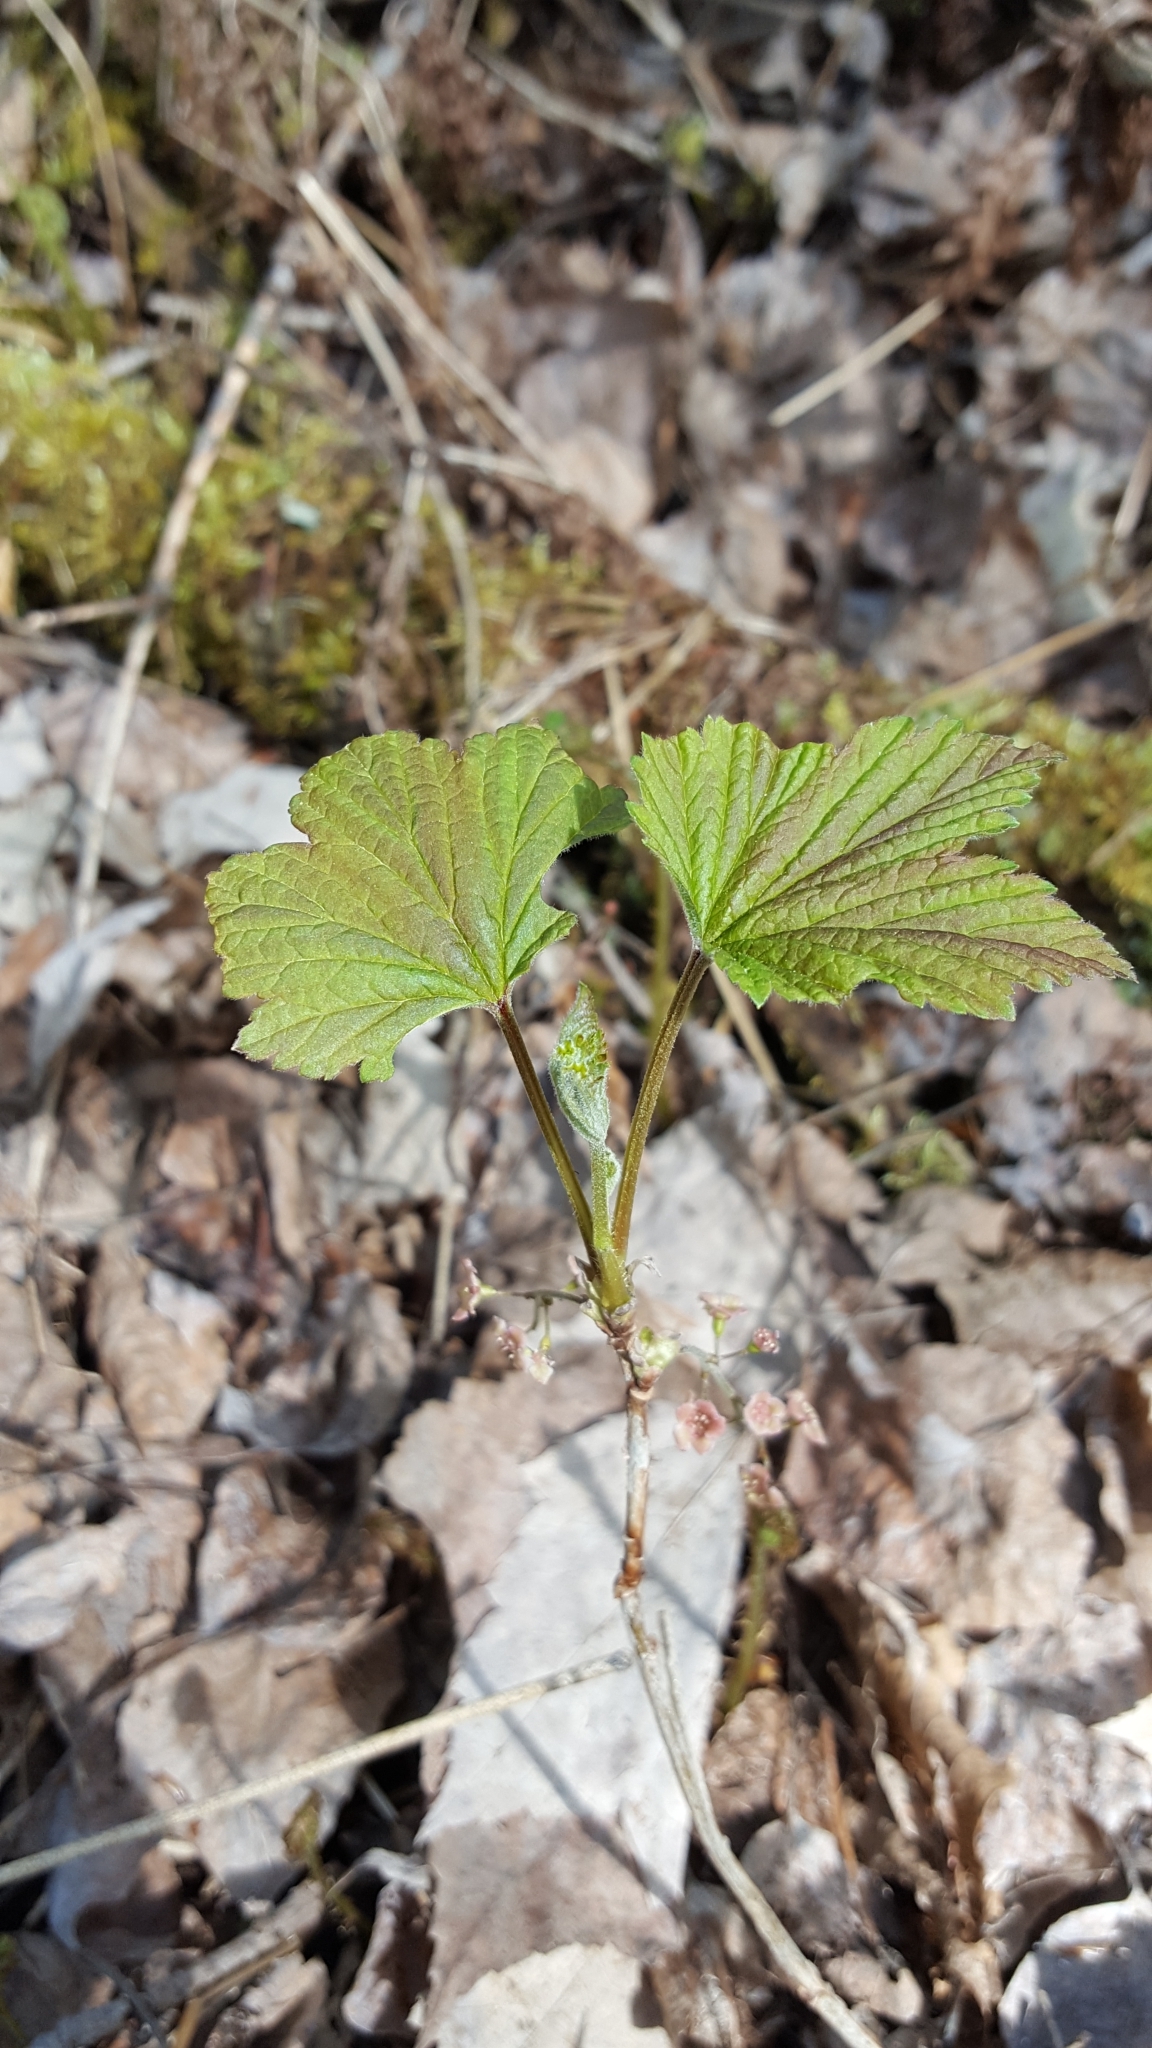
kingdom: Plantae
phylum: Tracheophyta
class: Magnoliopsida
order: Saxifragales
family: Grossulariaceae
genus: Ribes
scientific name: Ribes triste
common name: Swamp red currant
